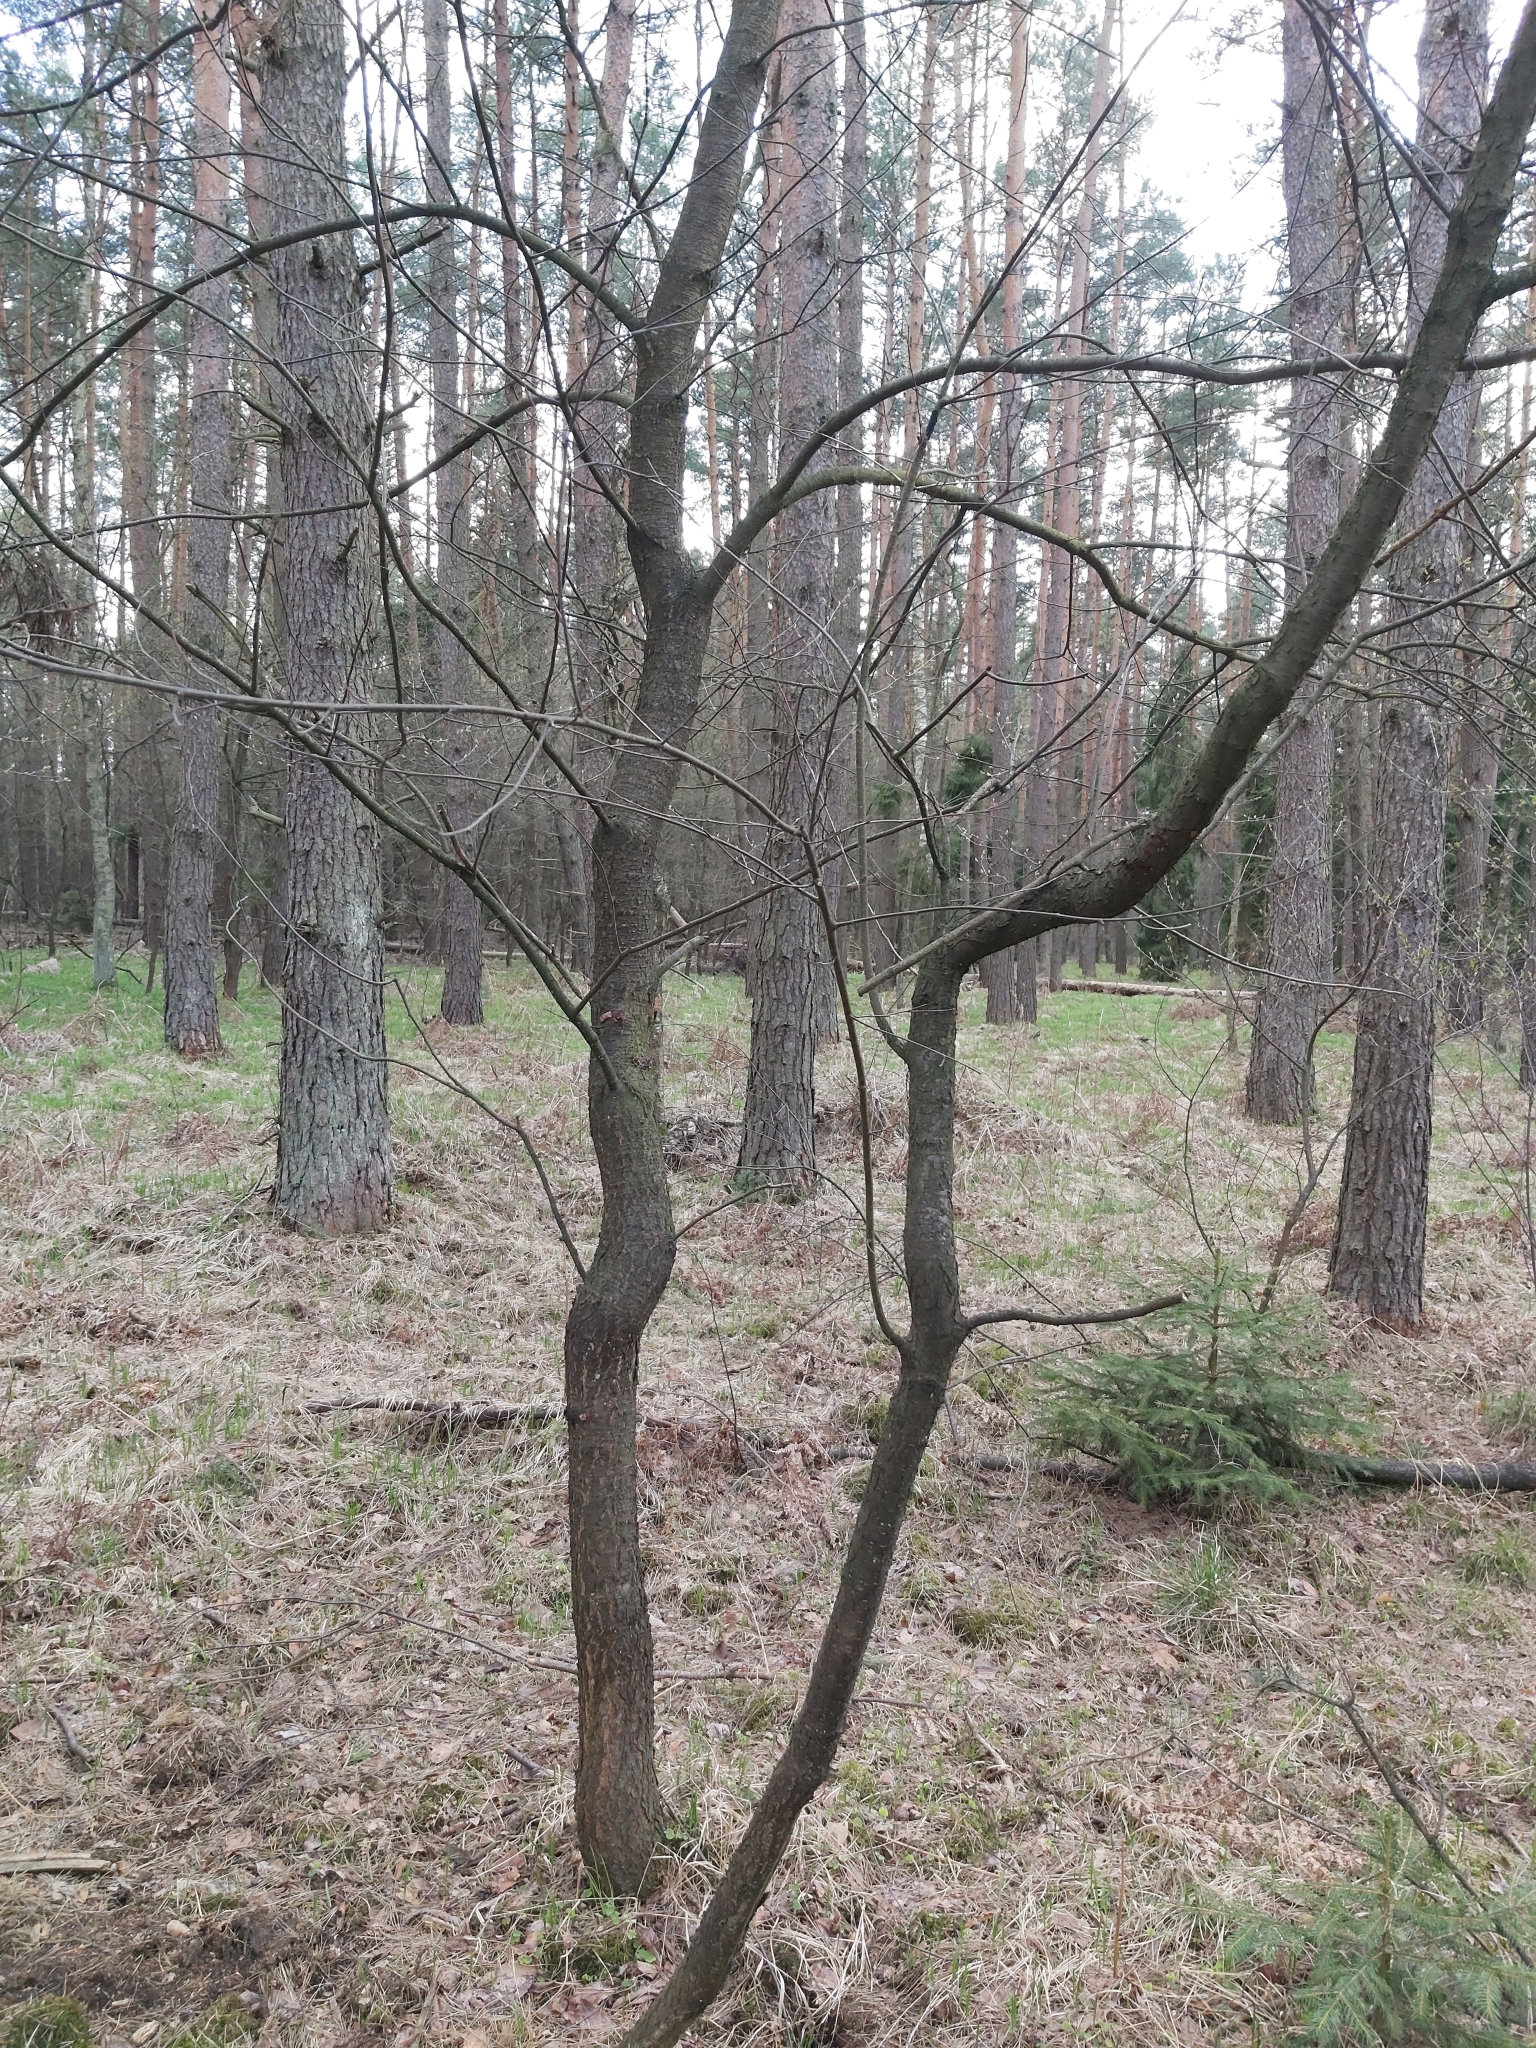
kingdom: Plantae
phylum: Tracheophyta
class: Magnoliopsida
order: Rosales
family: Rosaceae
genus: Prunus
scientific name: Prunus serotina
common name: Black cherry
